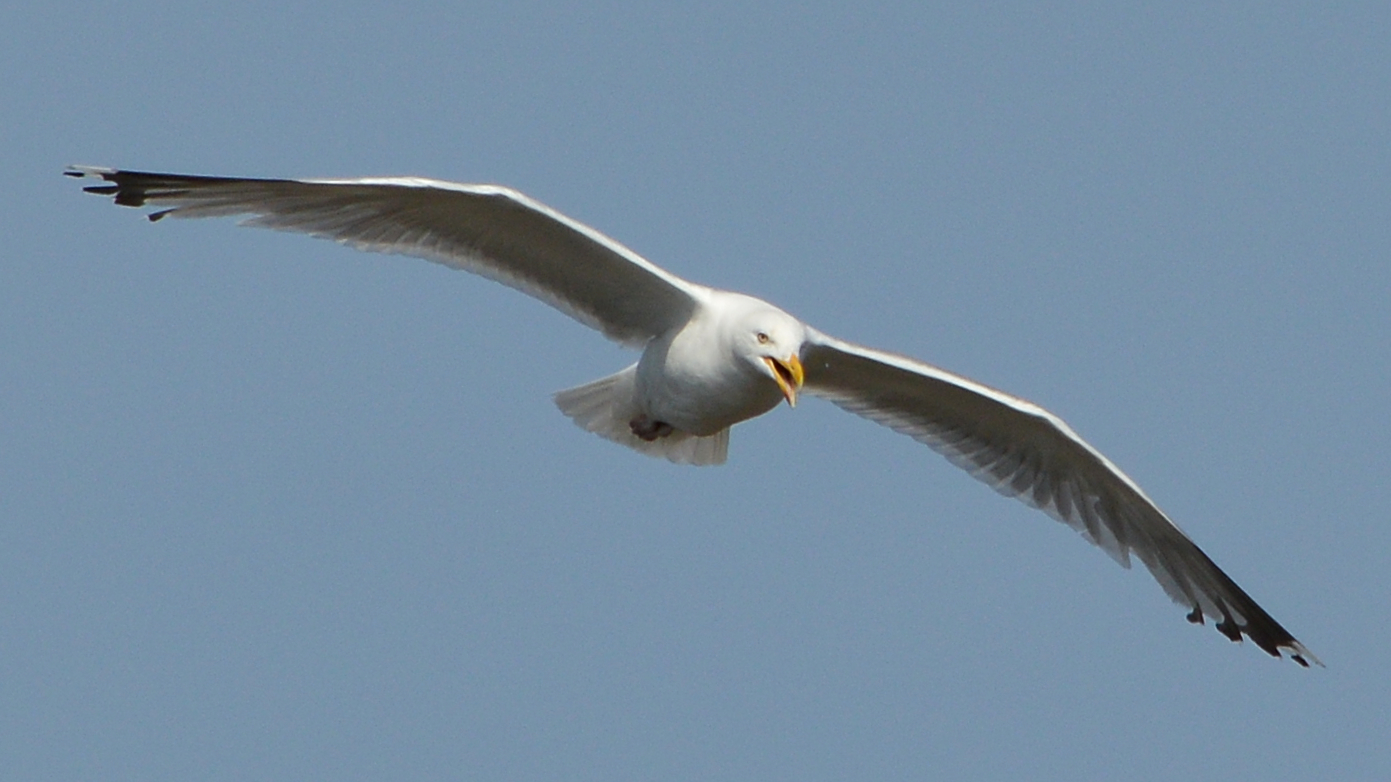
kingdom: Animalia
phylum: Chordata
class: Aves
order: Charadriiformes
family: Laridae
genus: Larus
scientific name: Larus argentatus
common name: Herring gull
